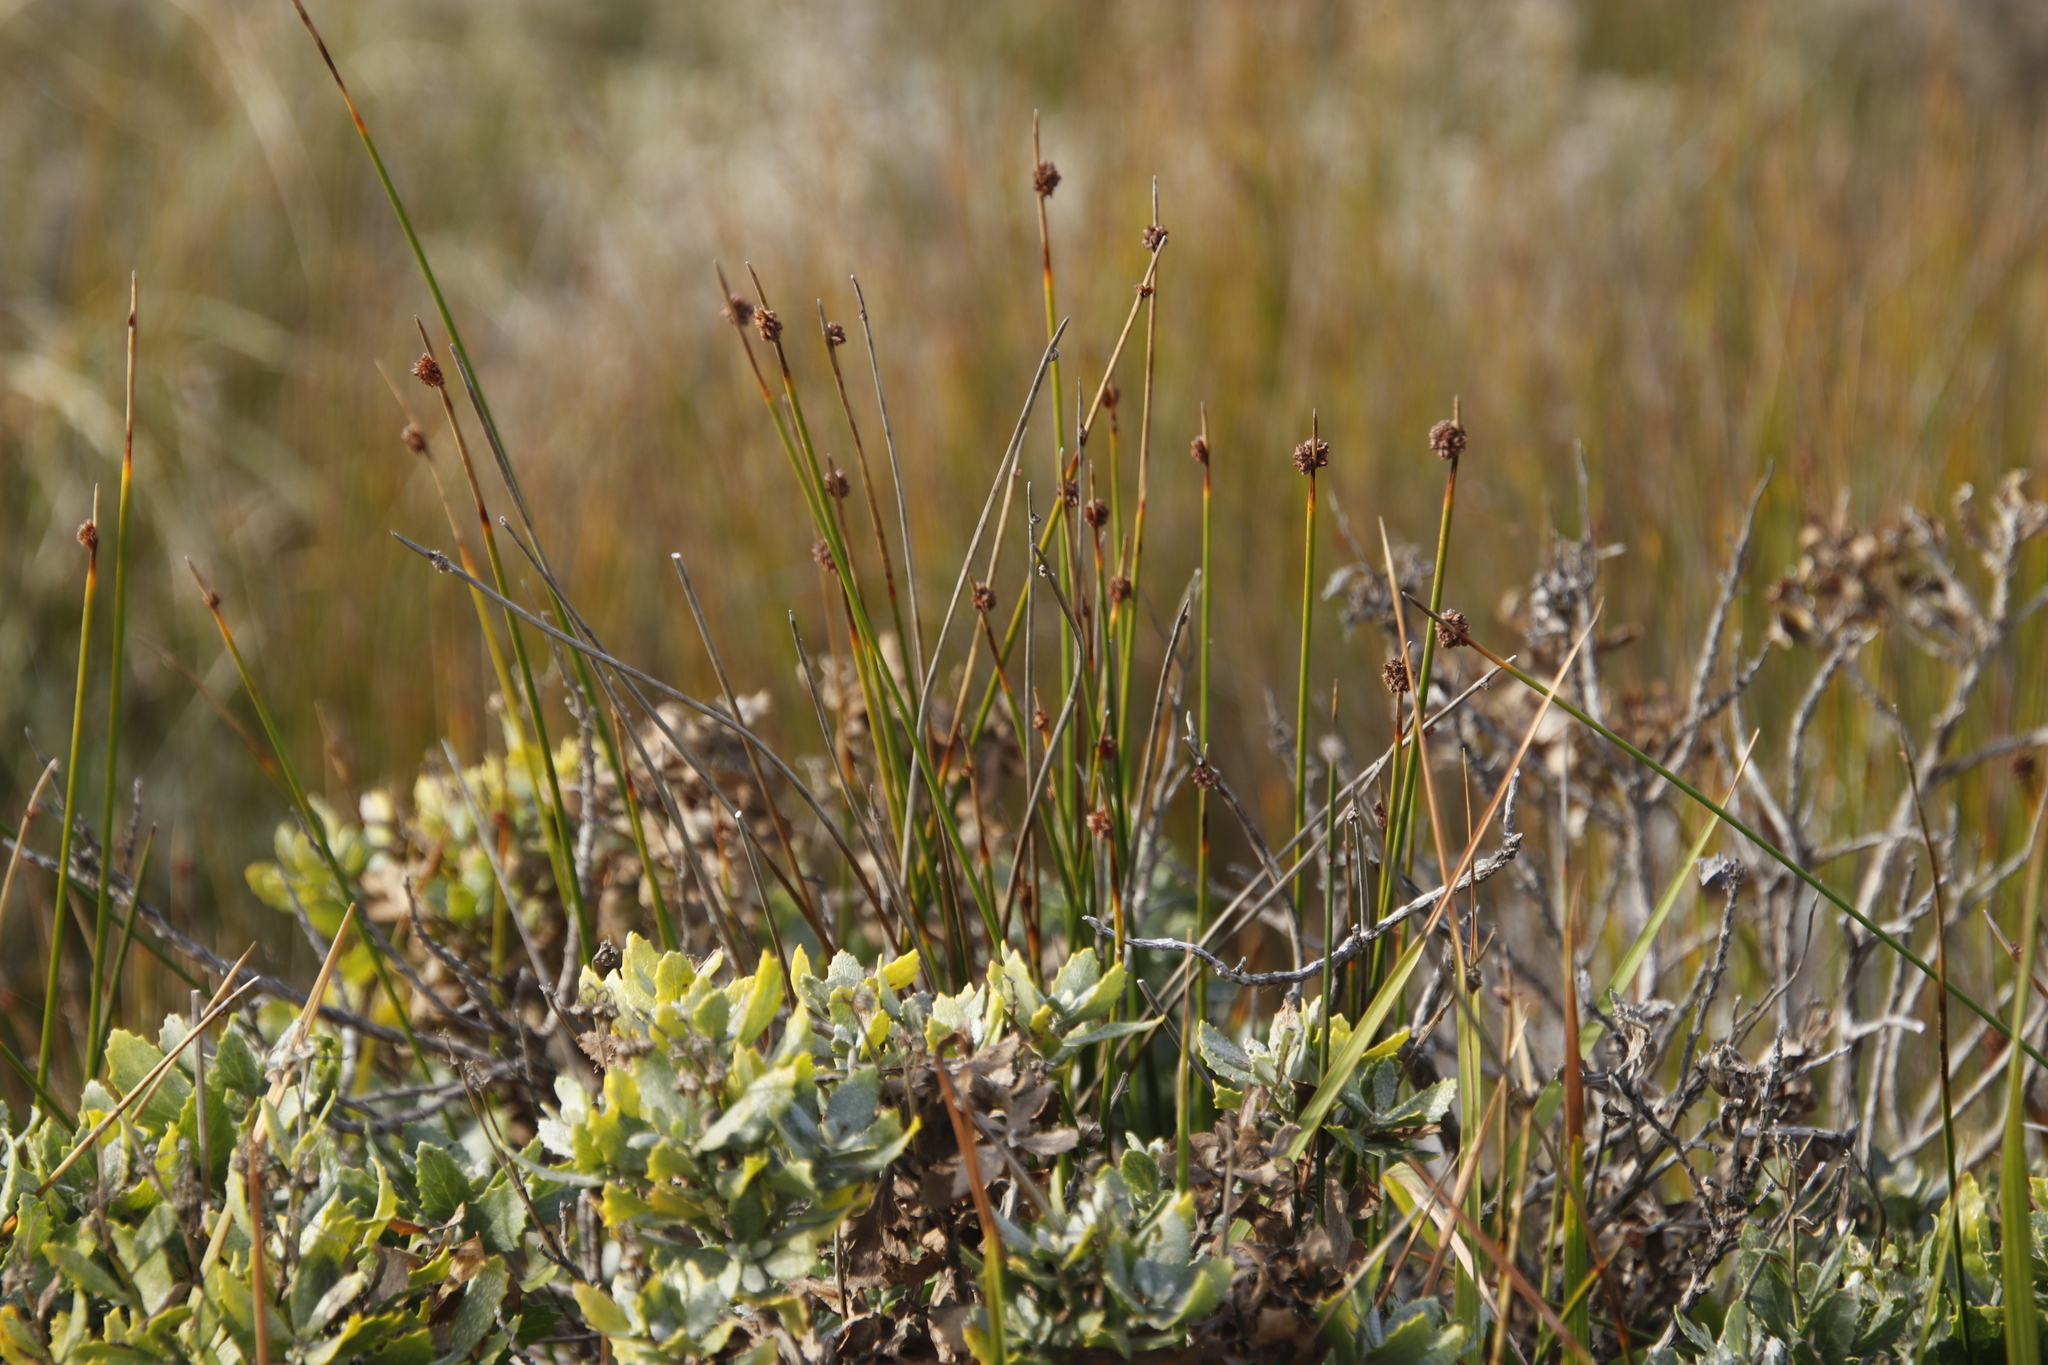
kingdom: Plantae
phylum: Tracheophyta
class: Liliopsida
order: Poales
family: Cyperaceae
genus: Ficinia
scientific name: Ficinia nodosa
